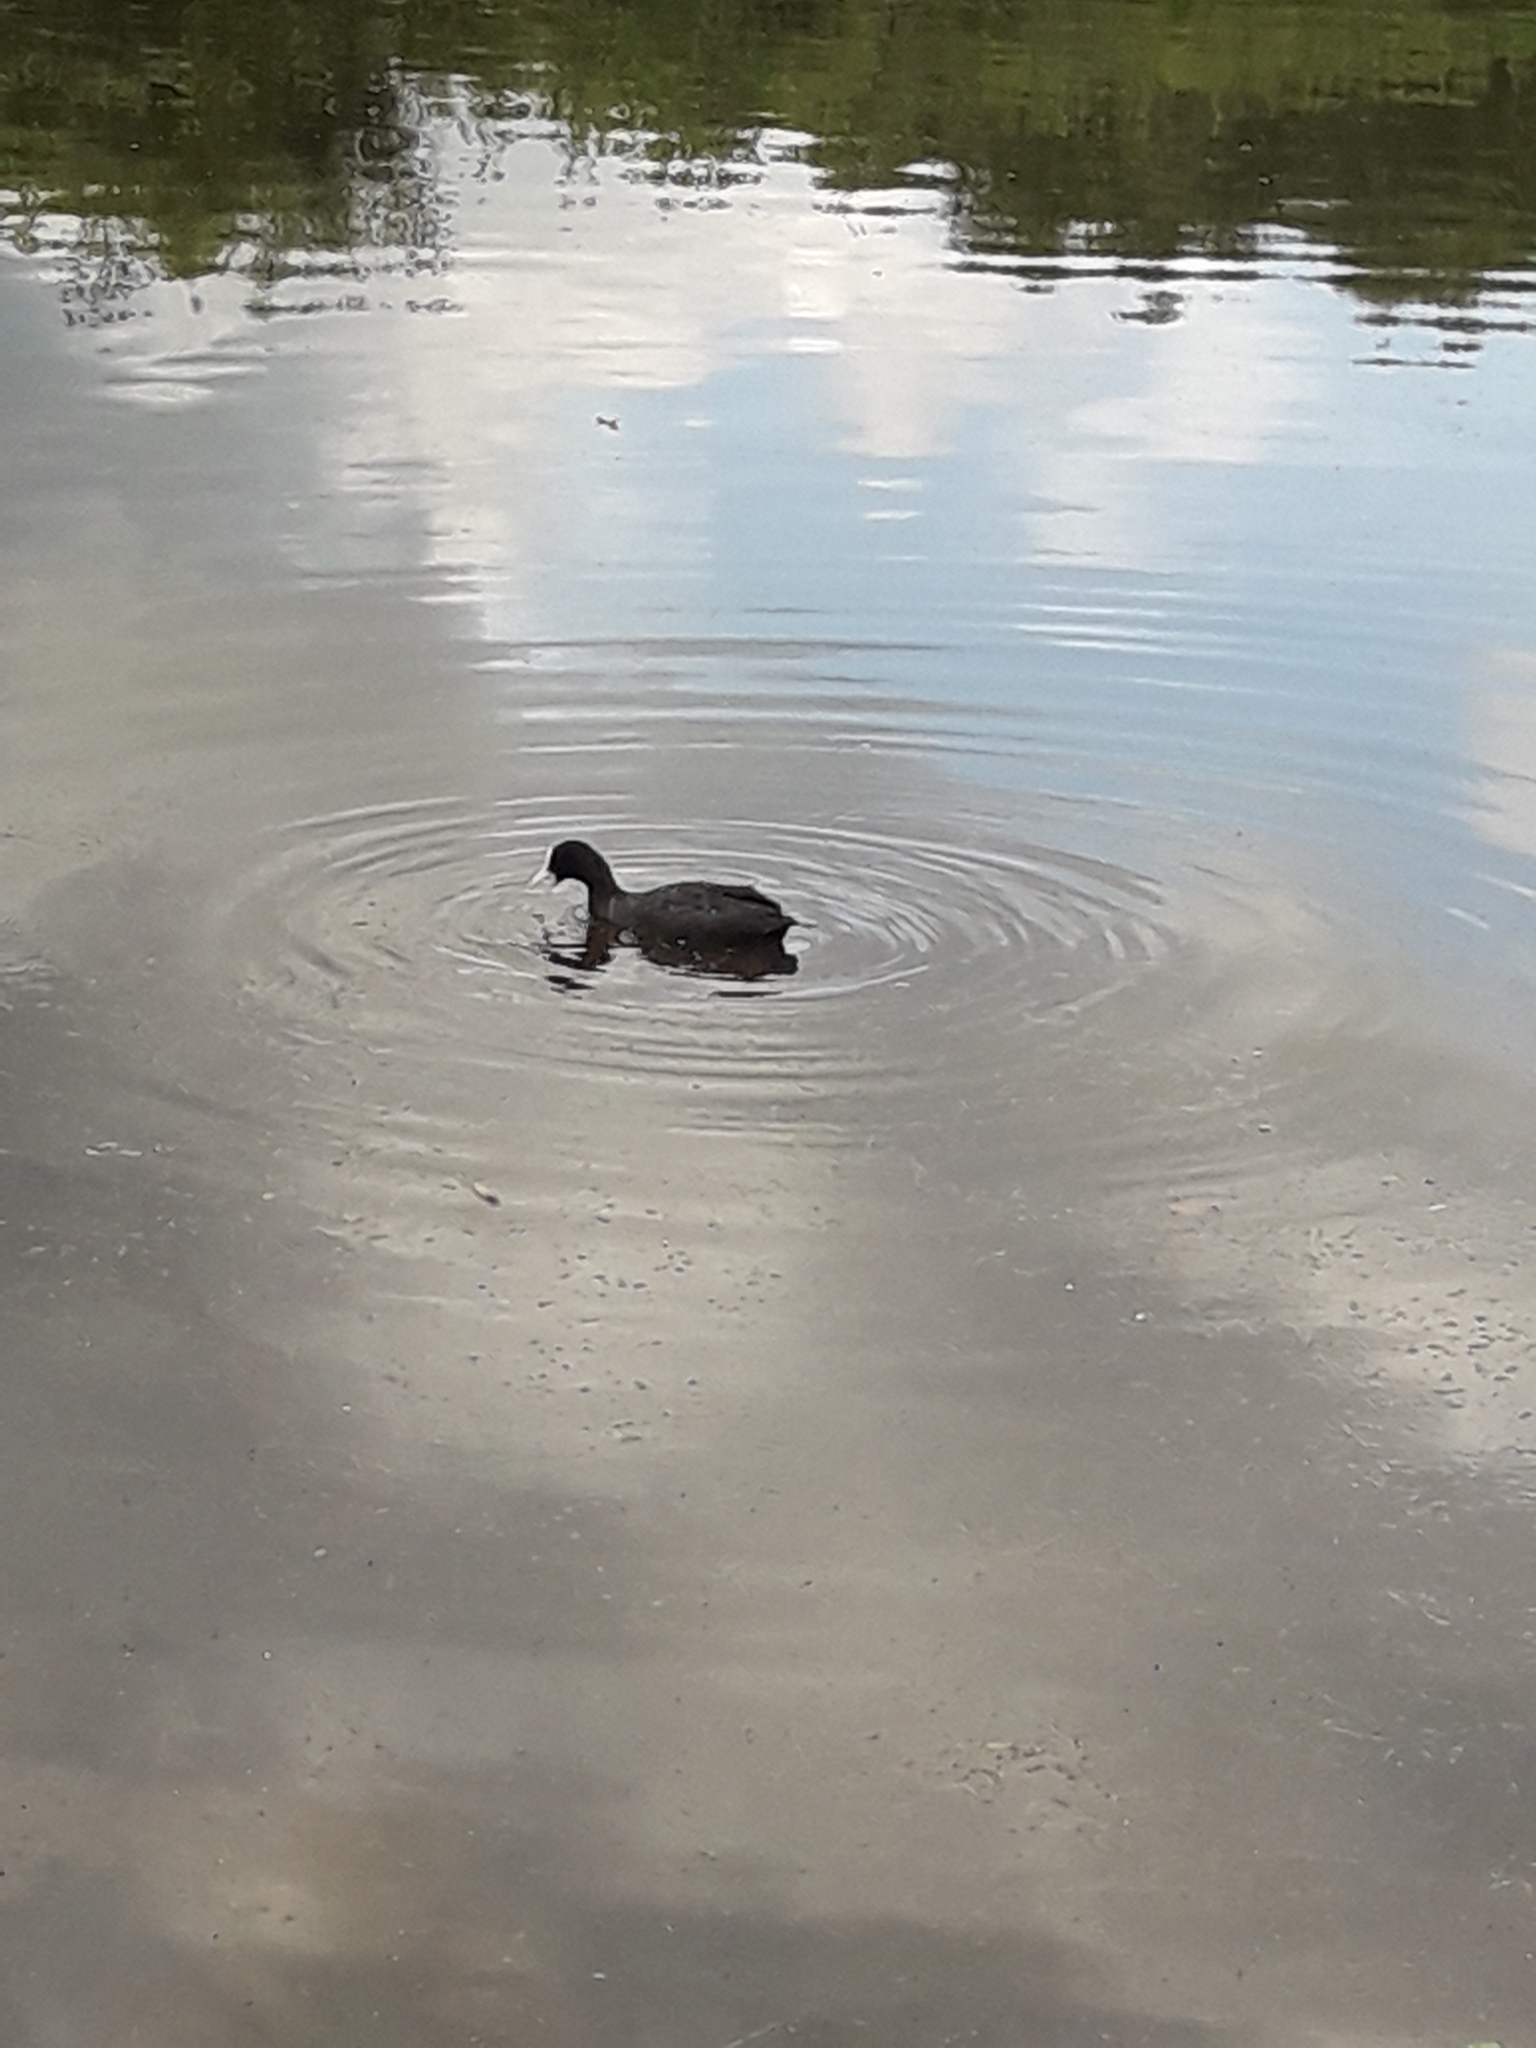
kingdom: Animalia
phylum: Chordata
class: Aves
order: Gruiformes
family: Rallidae
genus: Fulica
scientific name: Fulica atra
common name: Eurasian coot
